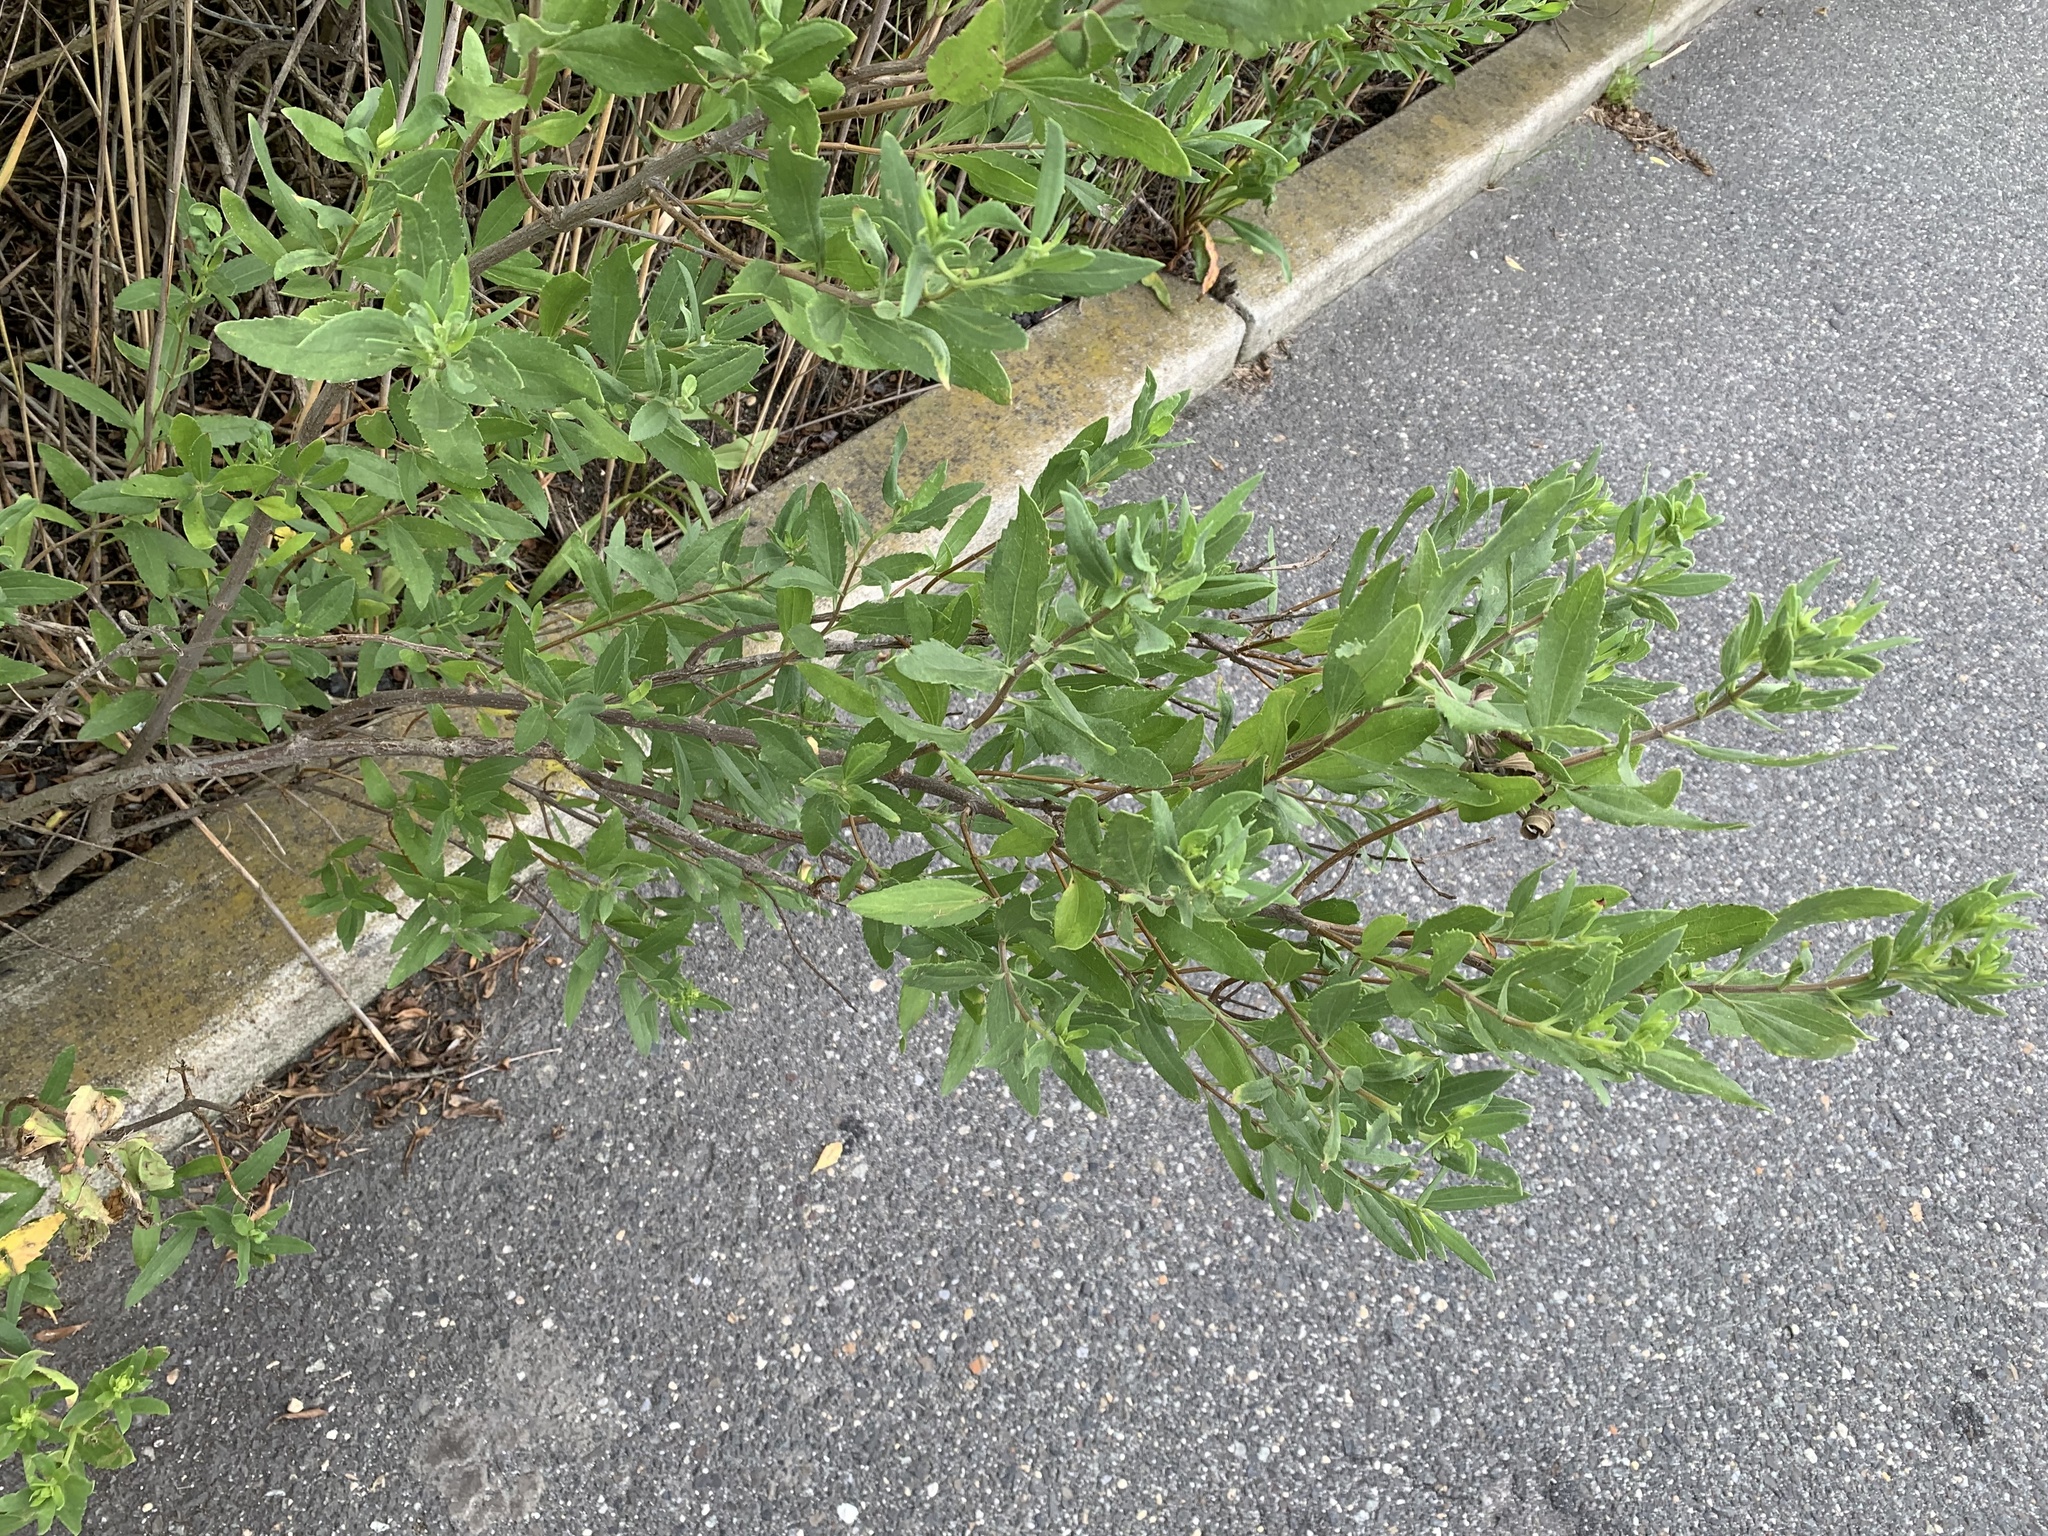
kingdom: Plantae
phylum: Tracheophyta
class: Magnoliopsida
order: Asterales
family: Asteraceae
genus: Iva
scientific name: Iva frutescens
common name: Big-leaved marsh-elder
